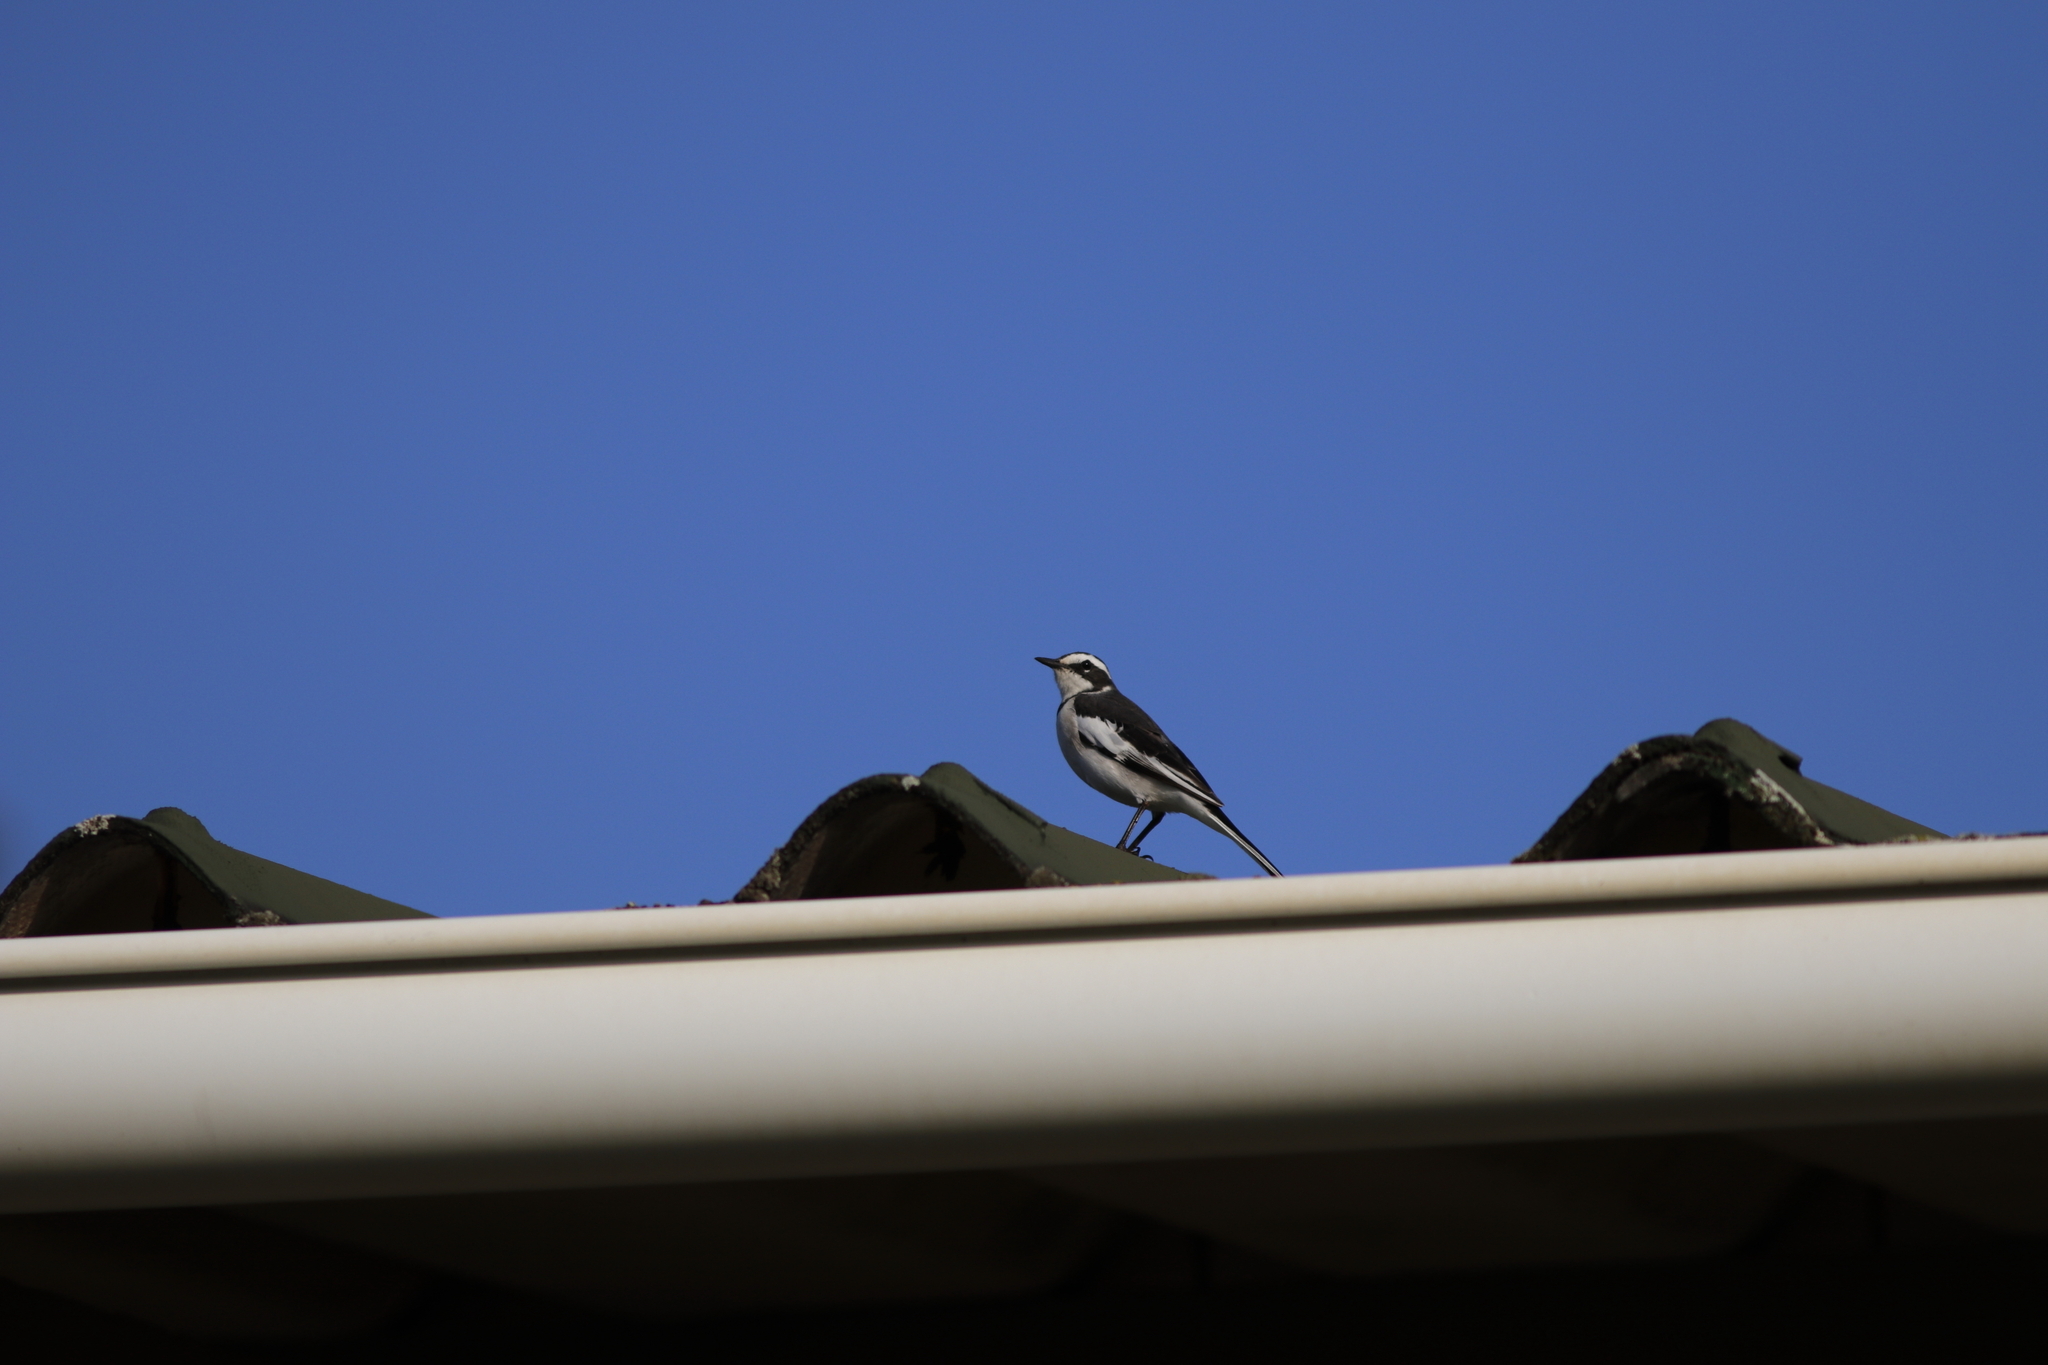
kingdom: Animalia
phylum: Chordata
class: Aves
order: Passeriformes
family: Motacillidae
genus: Motacilla
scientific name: Motacilla aguimp
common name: African pied wagtail
